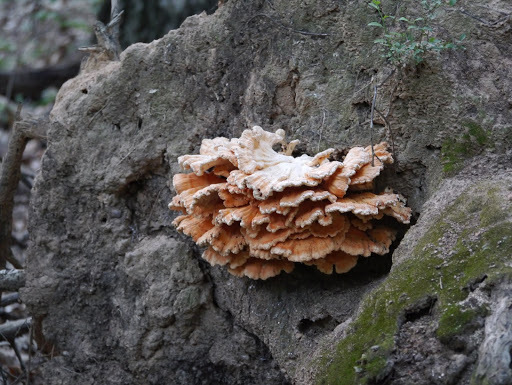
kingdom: Fungi
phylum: Basidiomycota
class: Agaricomycetes
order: Polyporales
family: Laetiporaceae
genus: Laetiporus
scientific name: Laetiporus sulphureus
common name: Chicken of the woods
